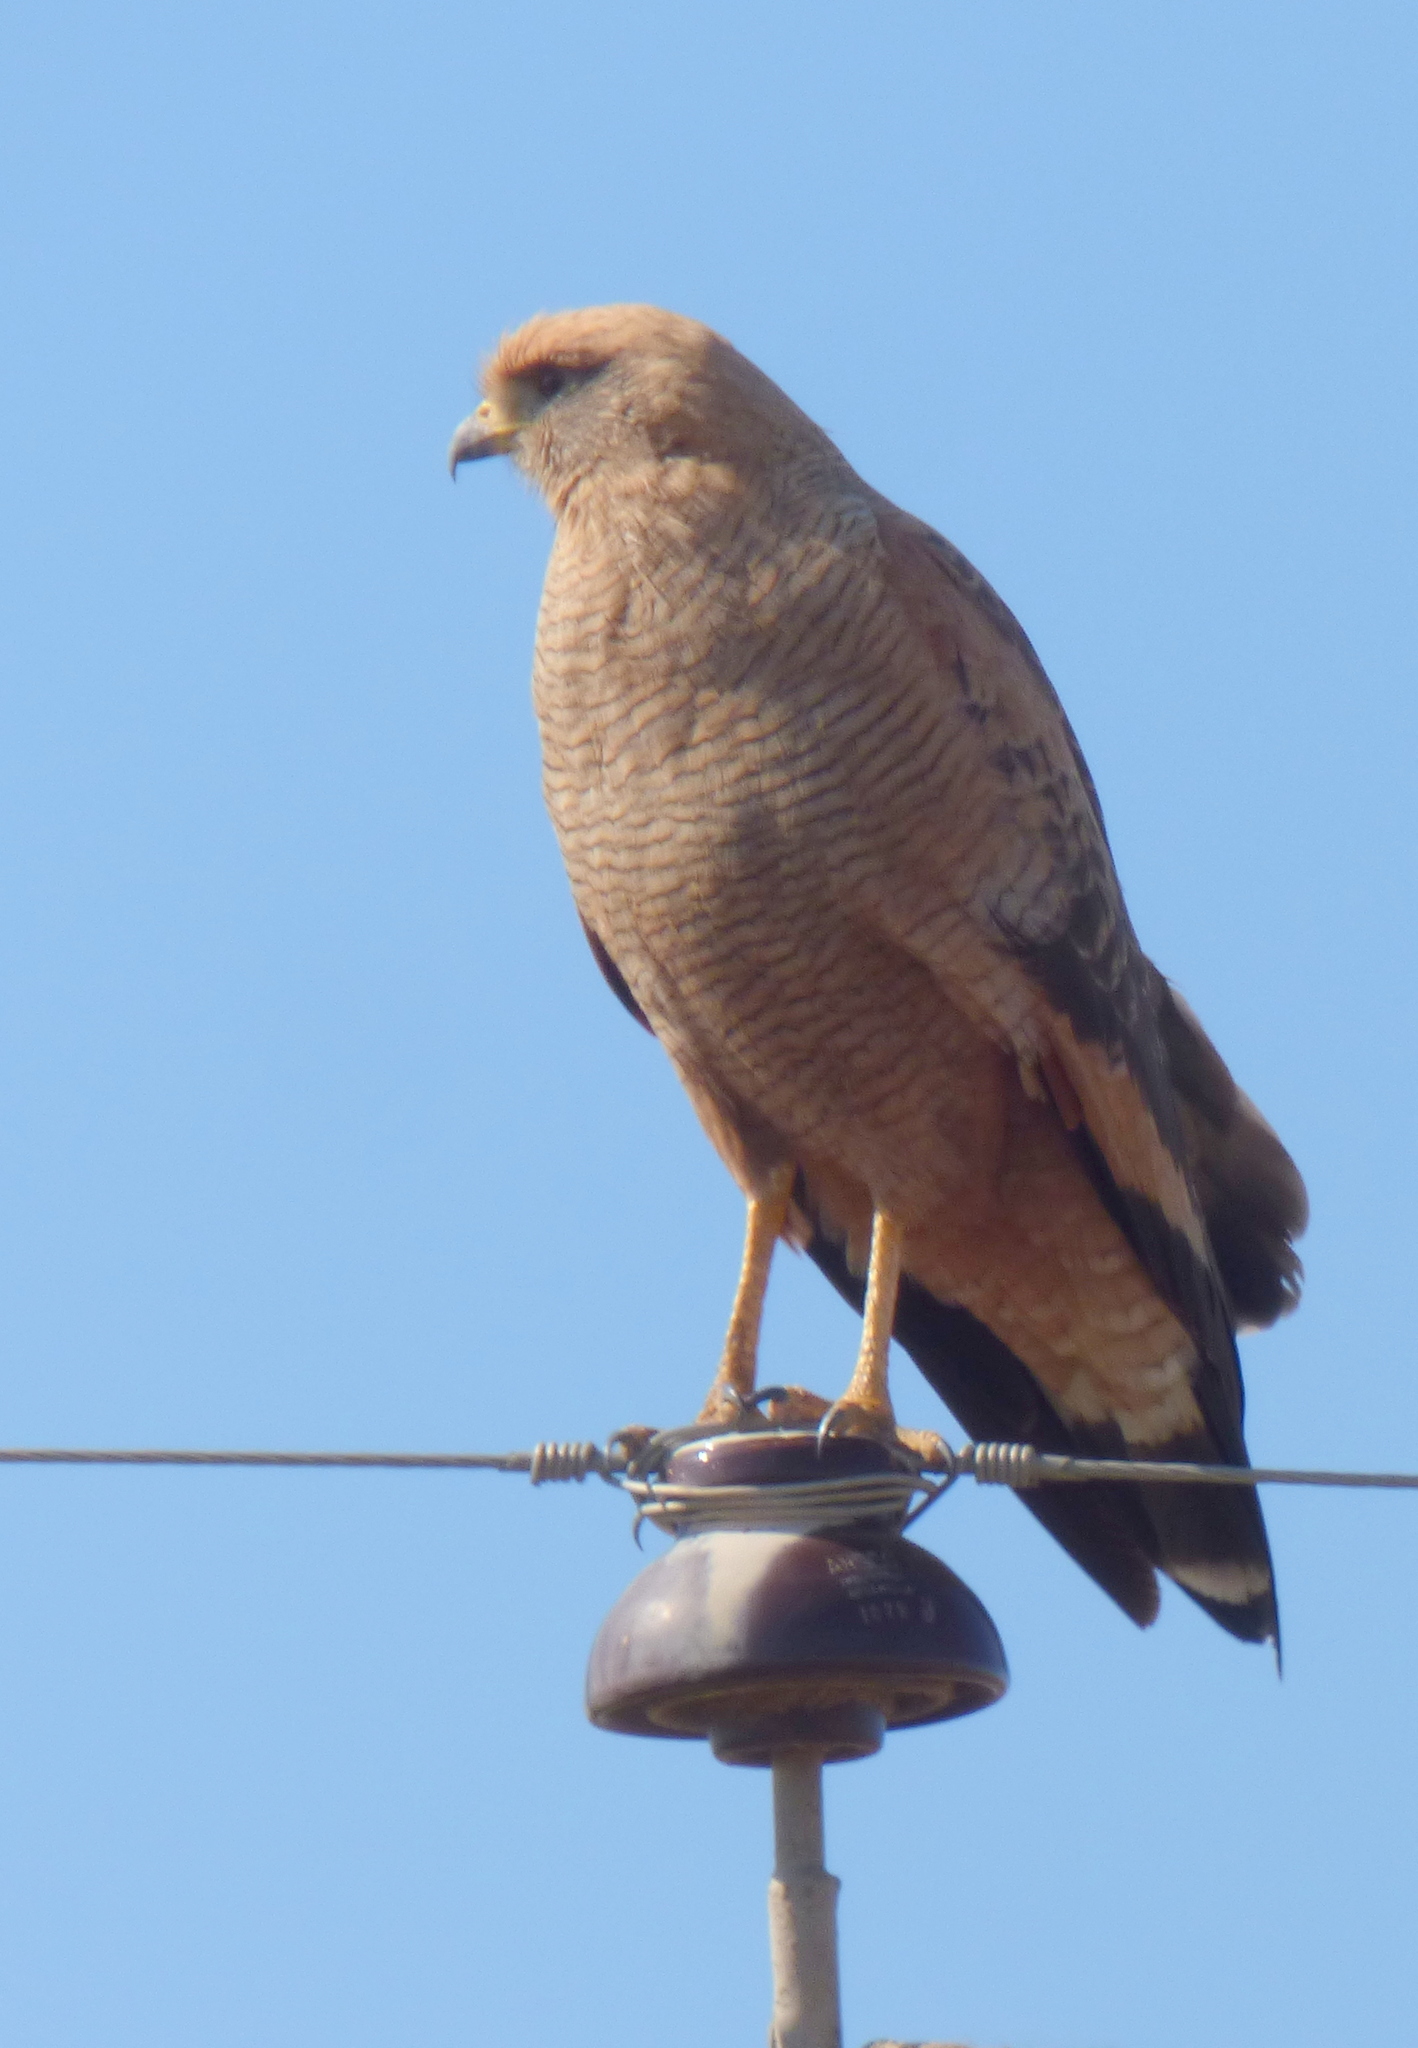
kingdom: Animalia
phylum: Chordata
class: Aves
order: Accipitriformes
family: Accipitridae
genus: Buteogallus
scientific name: Buteogallus meridionalis
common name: Savanna hawk
